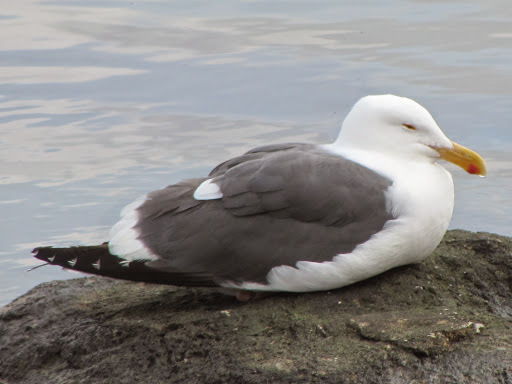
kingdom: Animalia
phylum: Chordata
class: Aves
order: Charadriiformes
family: Laridae
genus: Larus
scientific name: Larus occidentalis
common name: Western gull
